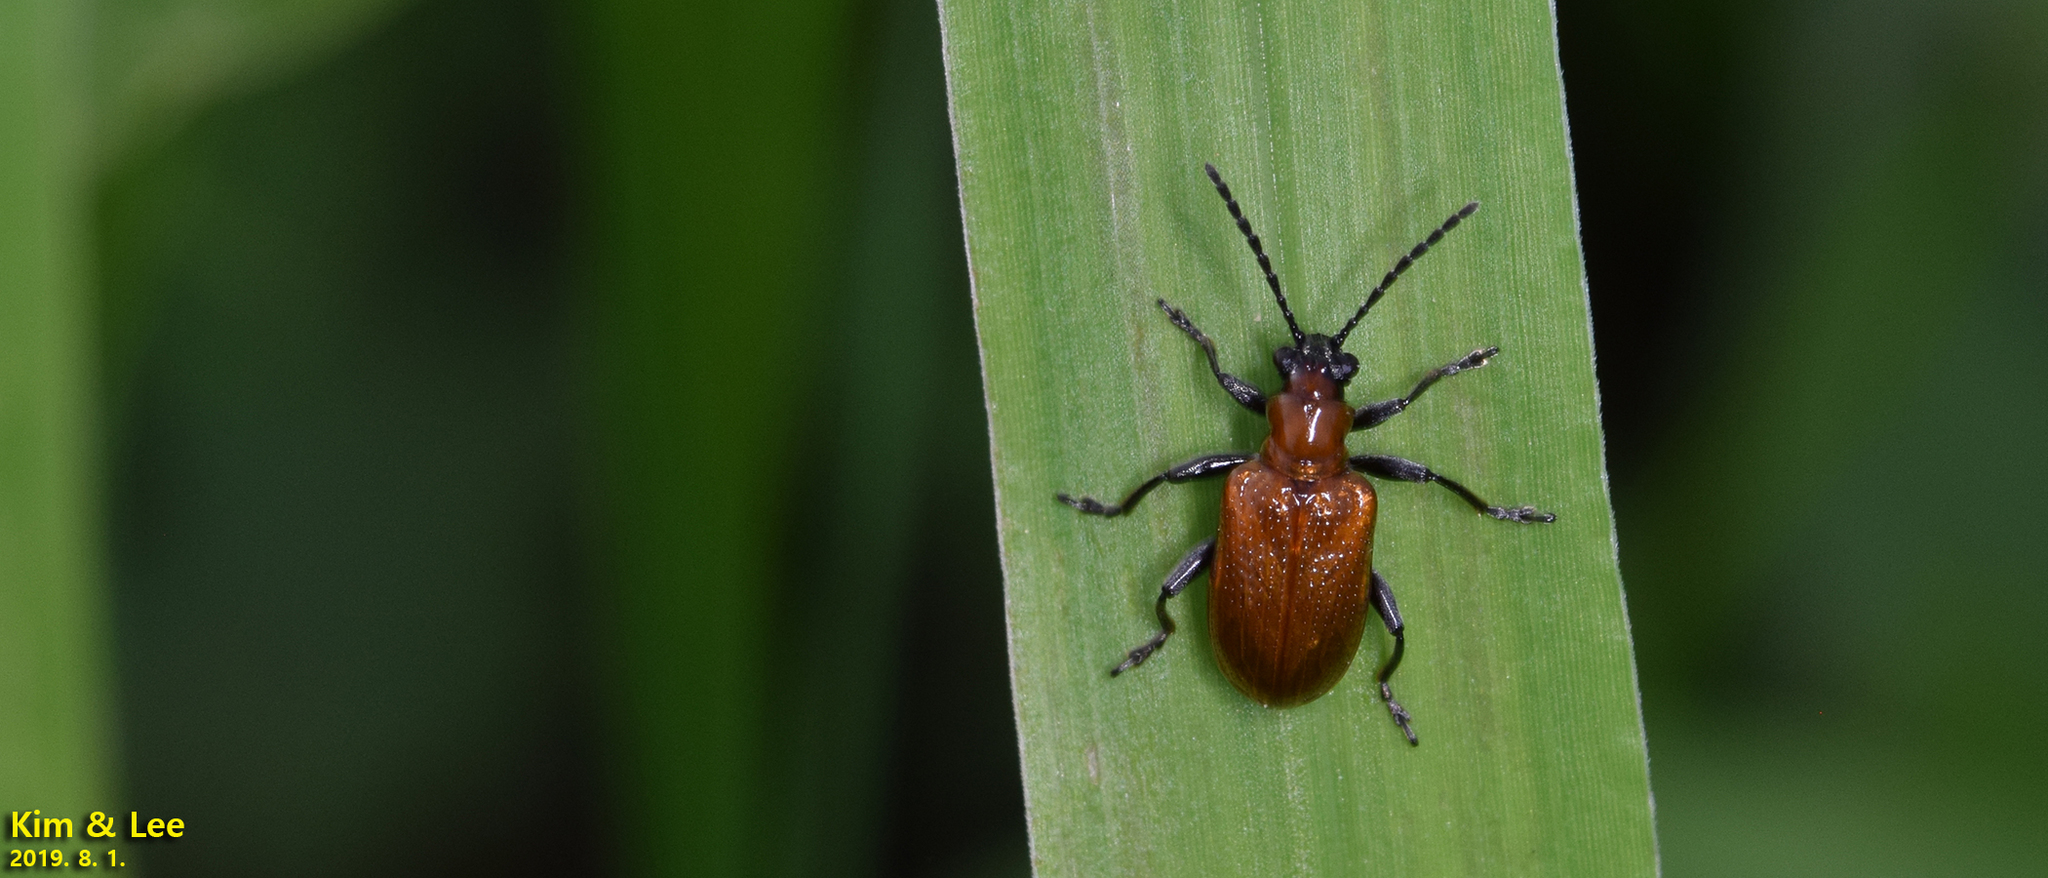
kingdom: Animalia
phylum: Arthropoda
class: Insecta
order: Coleoptera
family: Chrysomelidae
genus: Lema
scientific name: Lema diversa
